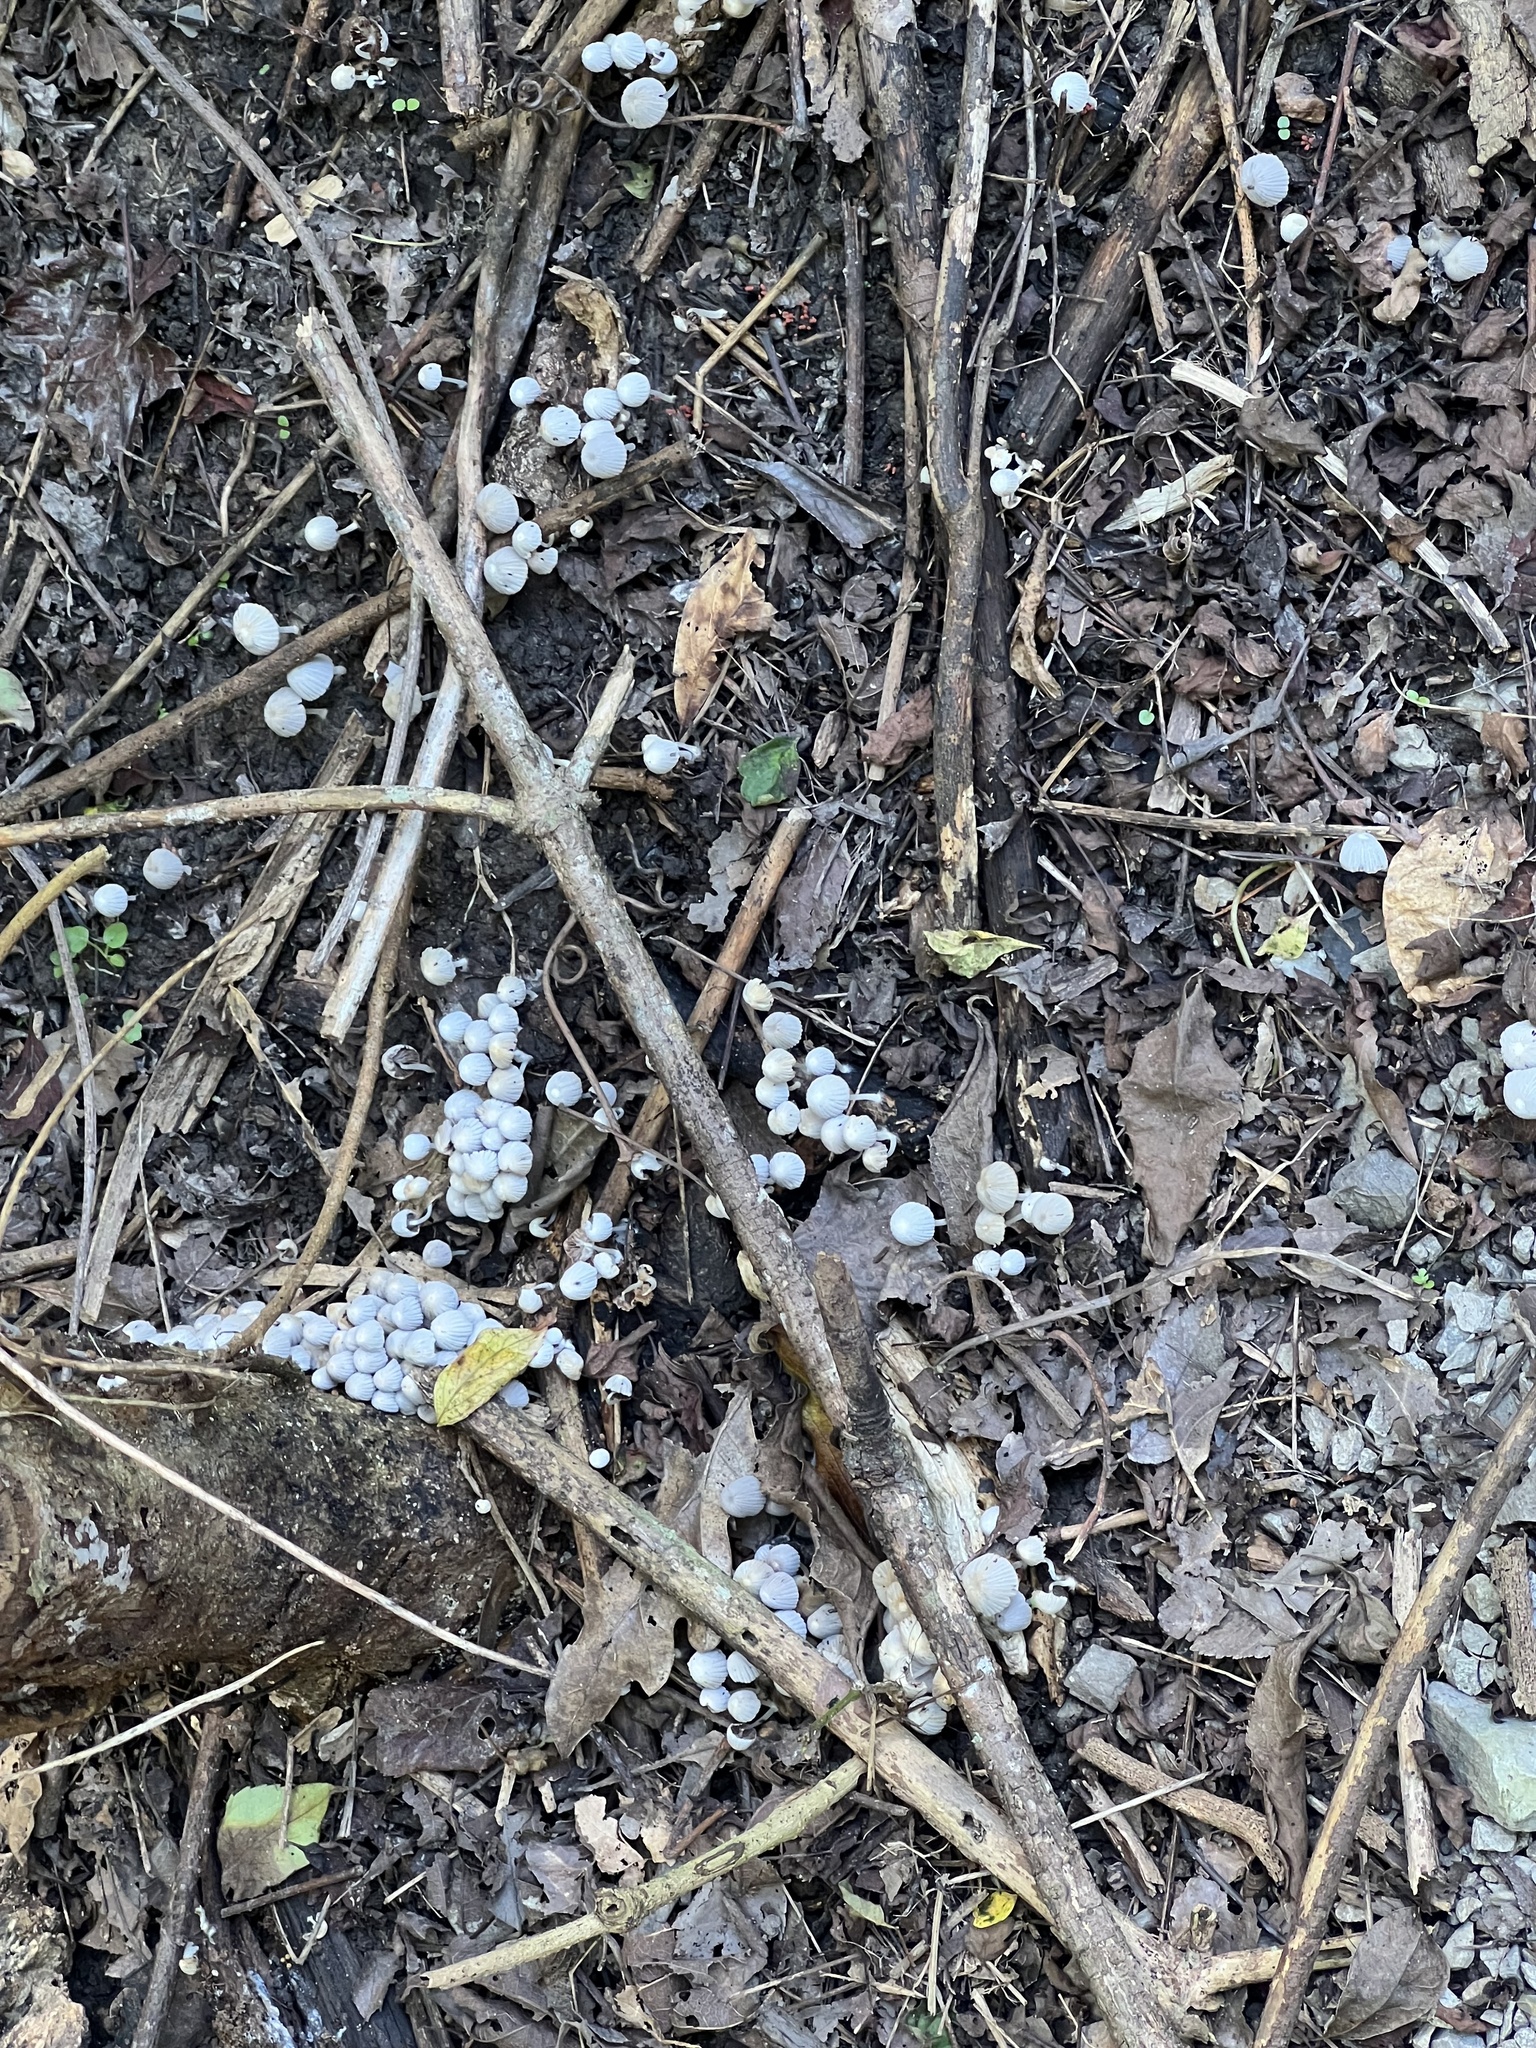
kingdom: Fungi
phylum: Basidiomycota
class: Agaricomycetes
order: Agaricales
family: Psathyrellaceae
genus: Coprinellus
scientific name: Coprinellus disseminatus
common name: Fairies' bonnets
